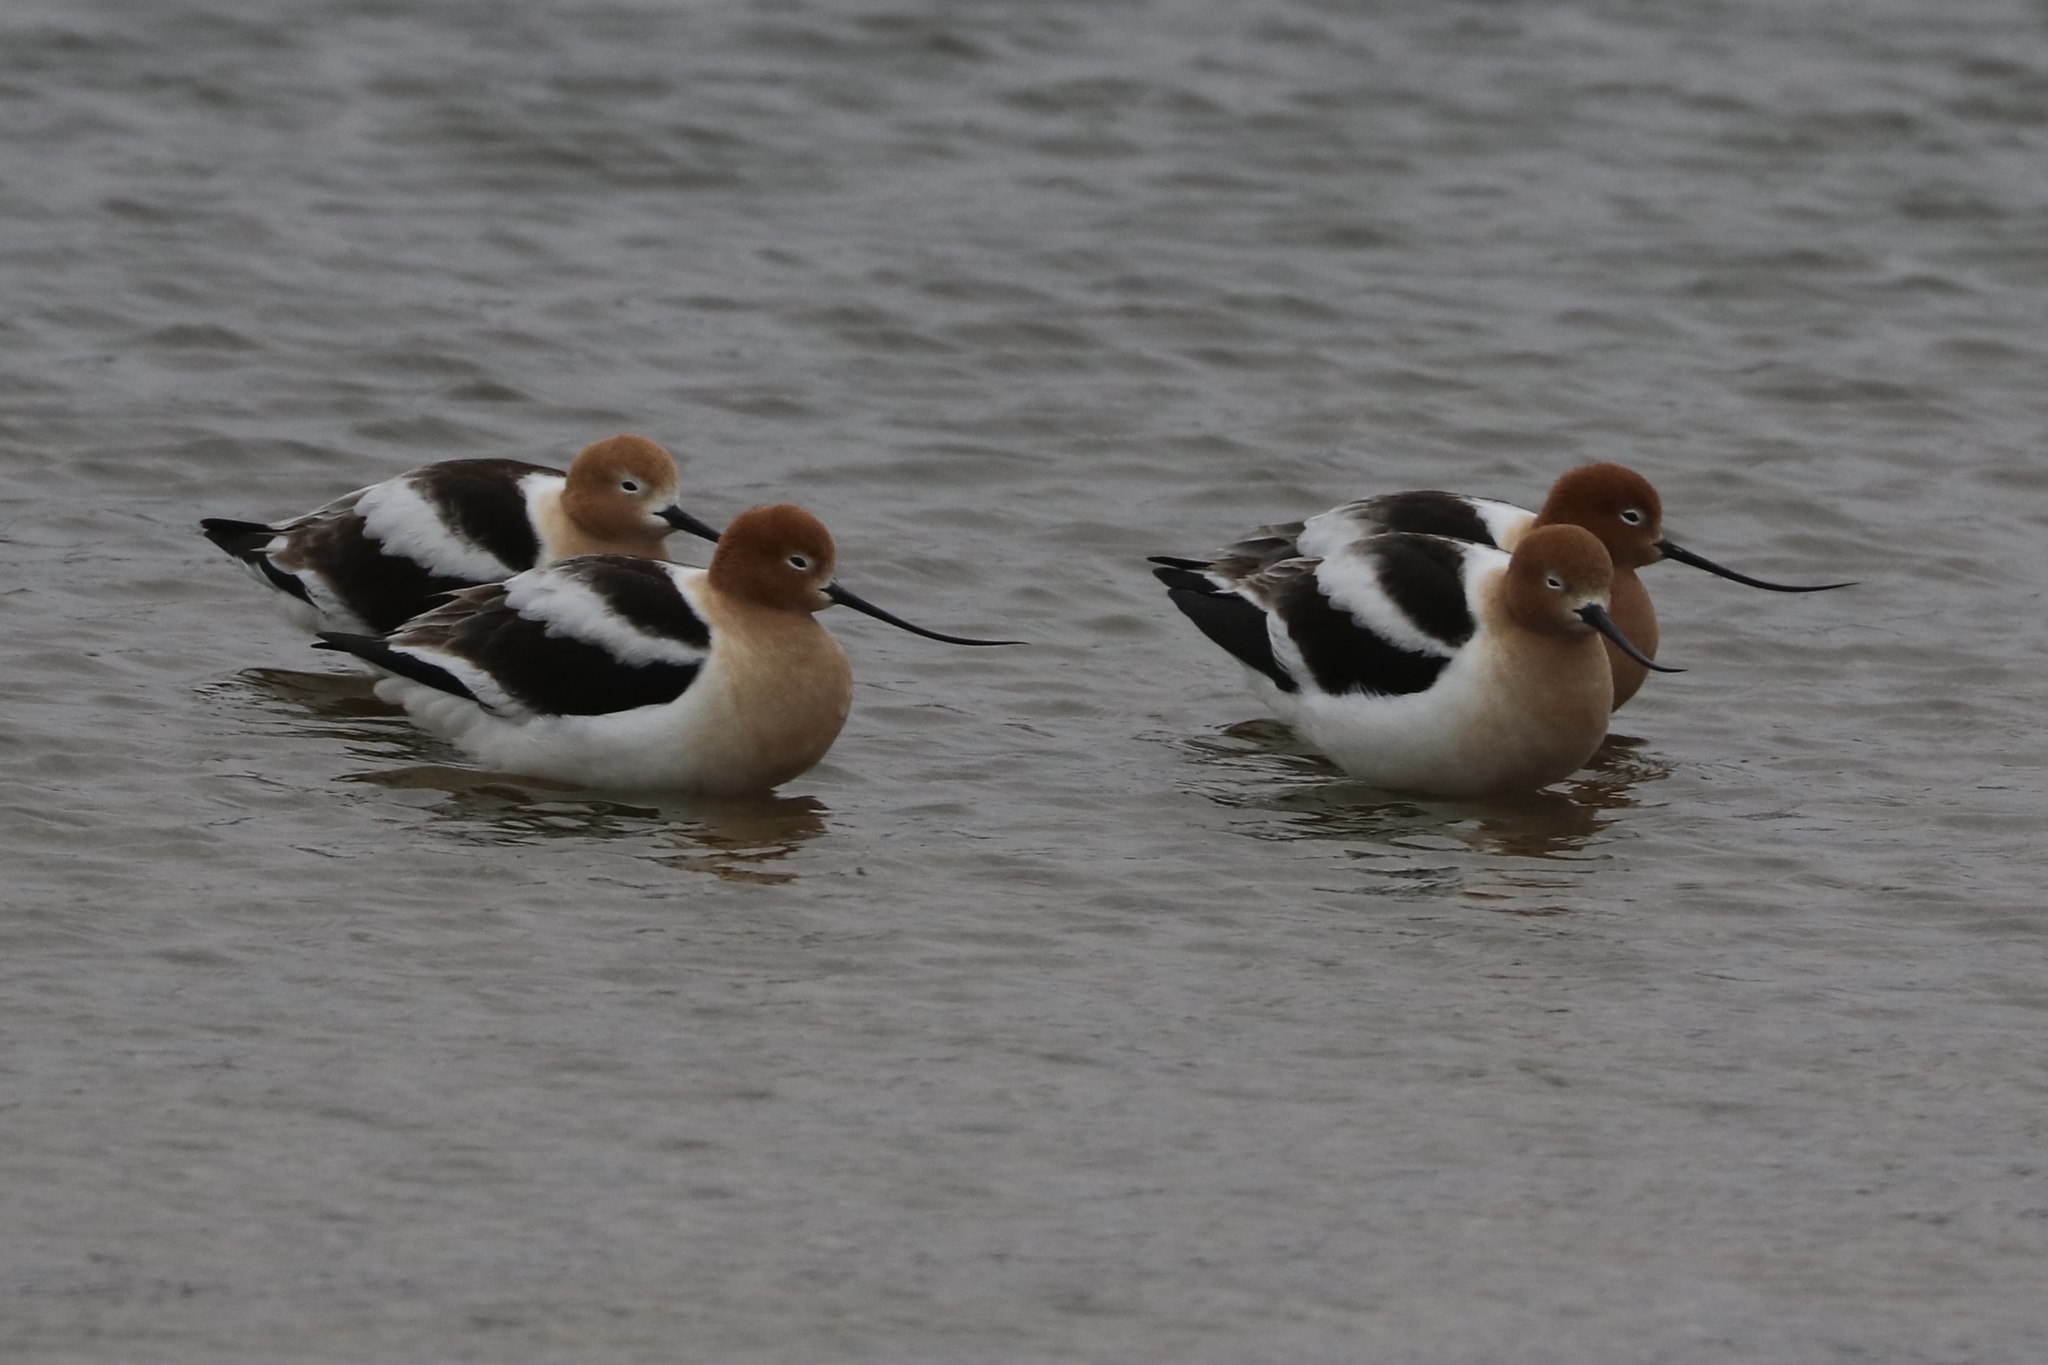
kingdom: Animalia
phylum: Chordata
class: Aves
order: Charadriiformes
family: Recurvirostridae
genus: Recurvirostra
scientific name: Recurvirostra americana
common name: American avocet
